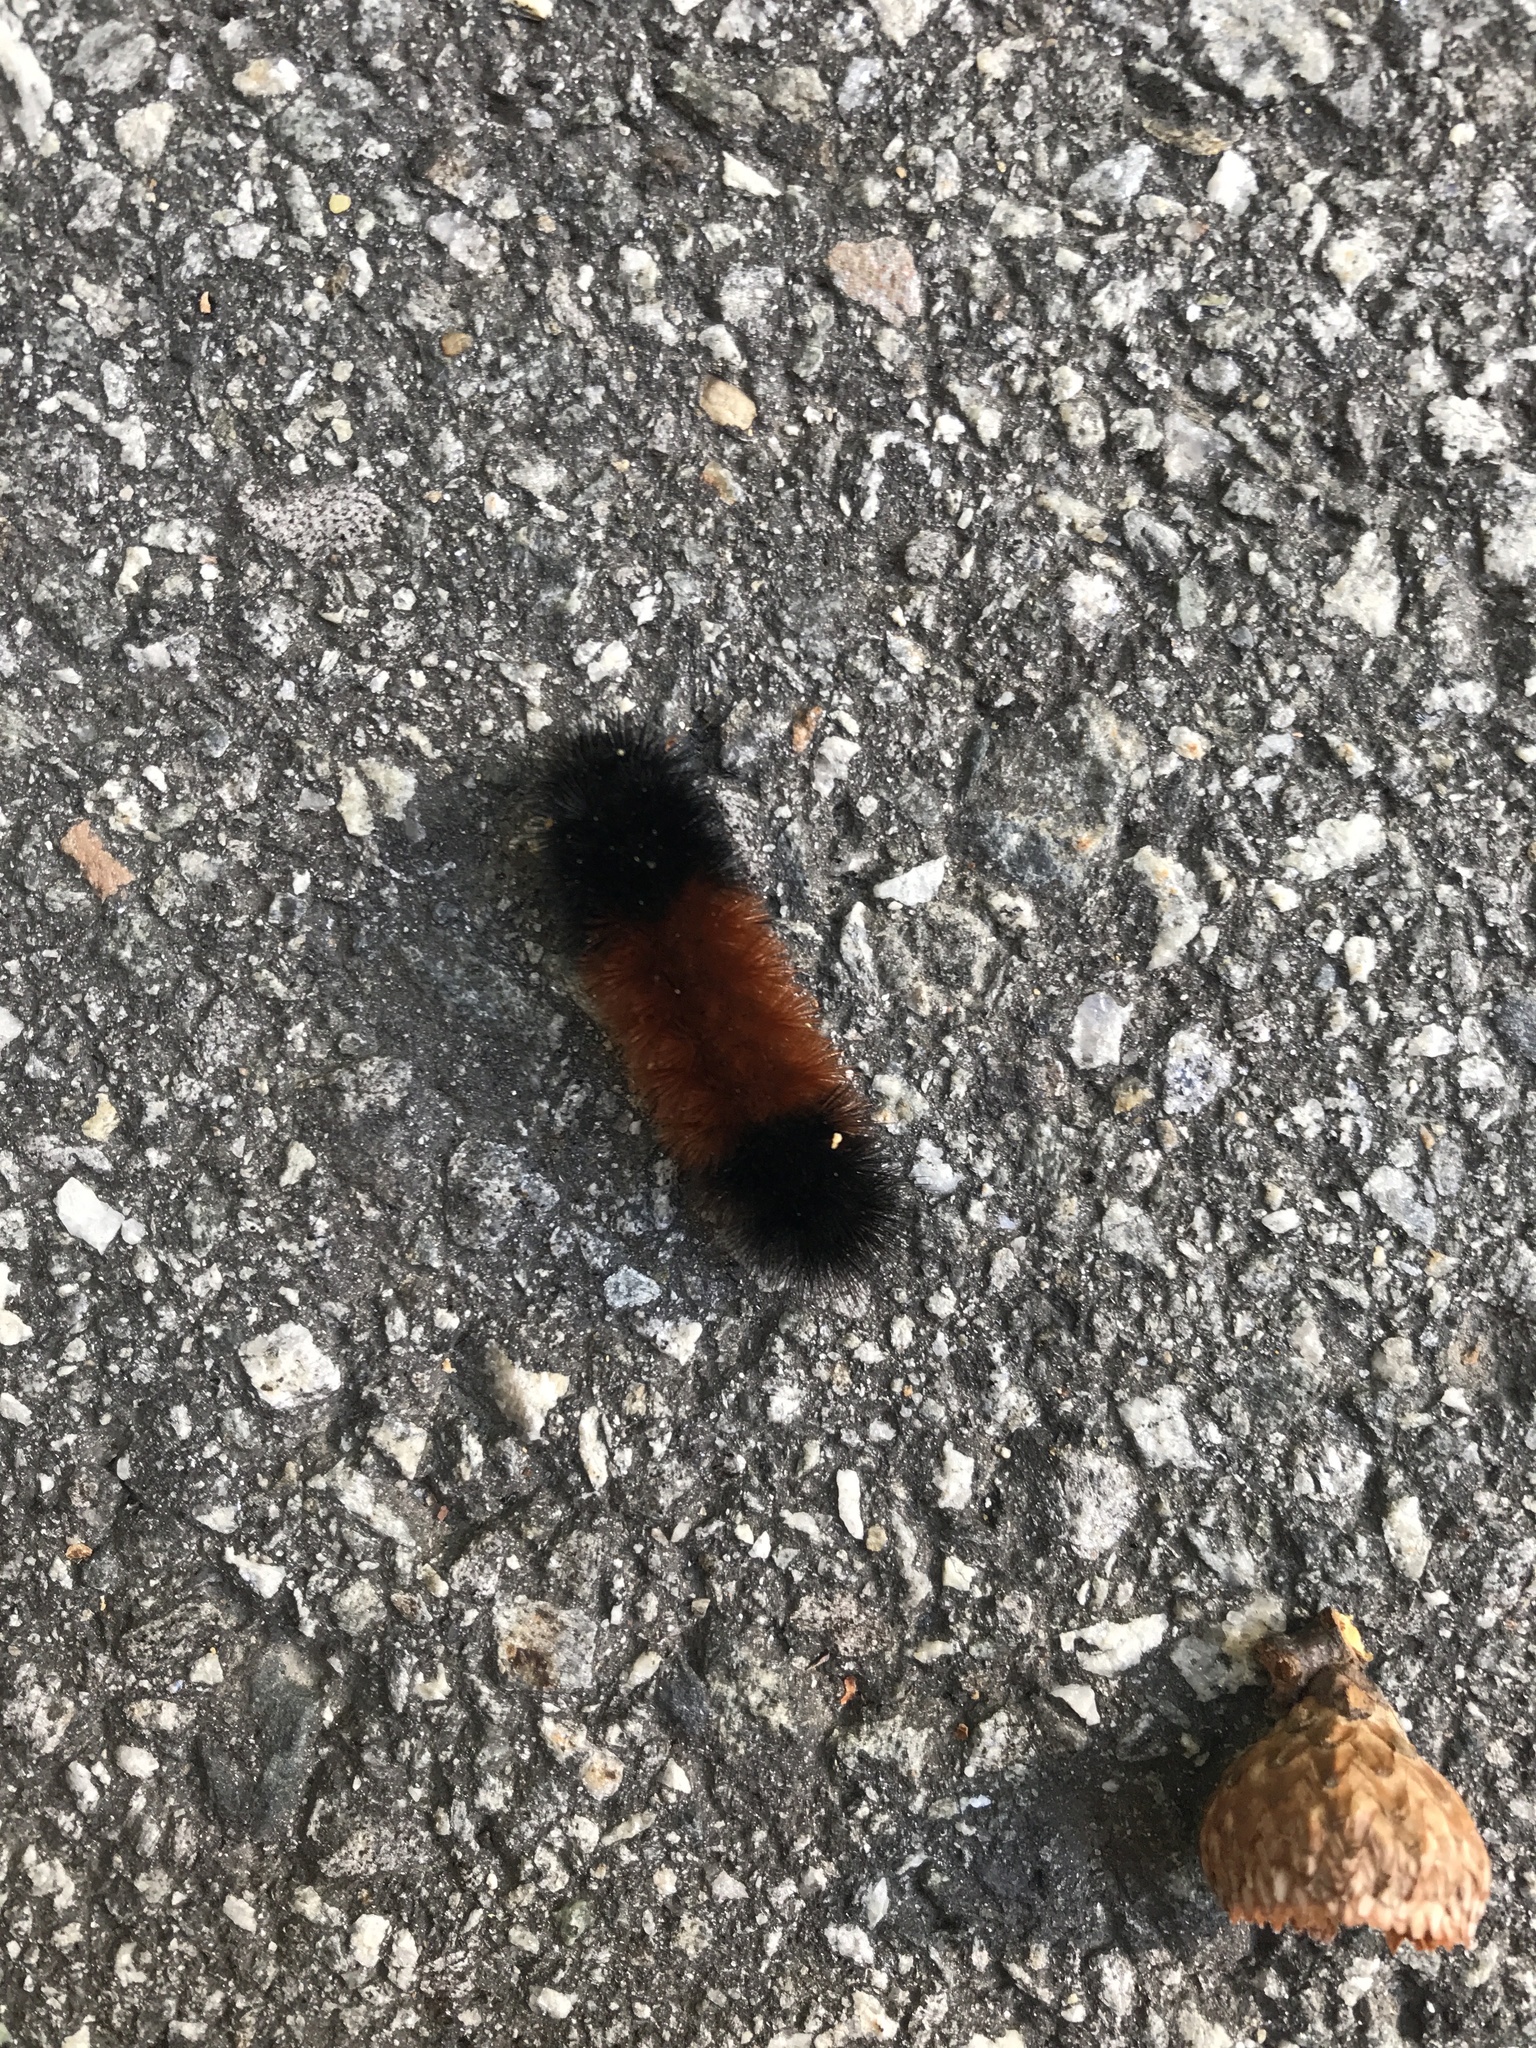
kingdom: Animalia
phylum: Arthropoda
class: Insecta
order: Lepidoptera
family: Erebidae
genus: Pyrrharctia
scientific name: Pyrrharctia isabella
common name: Isabella tiger moth
